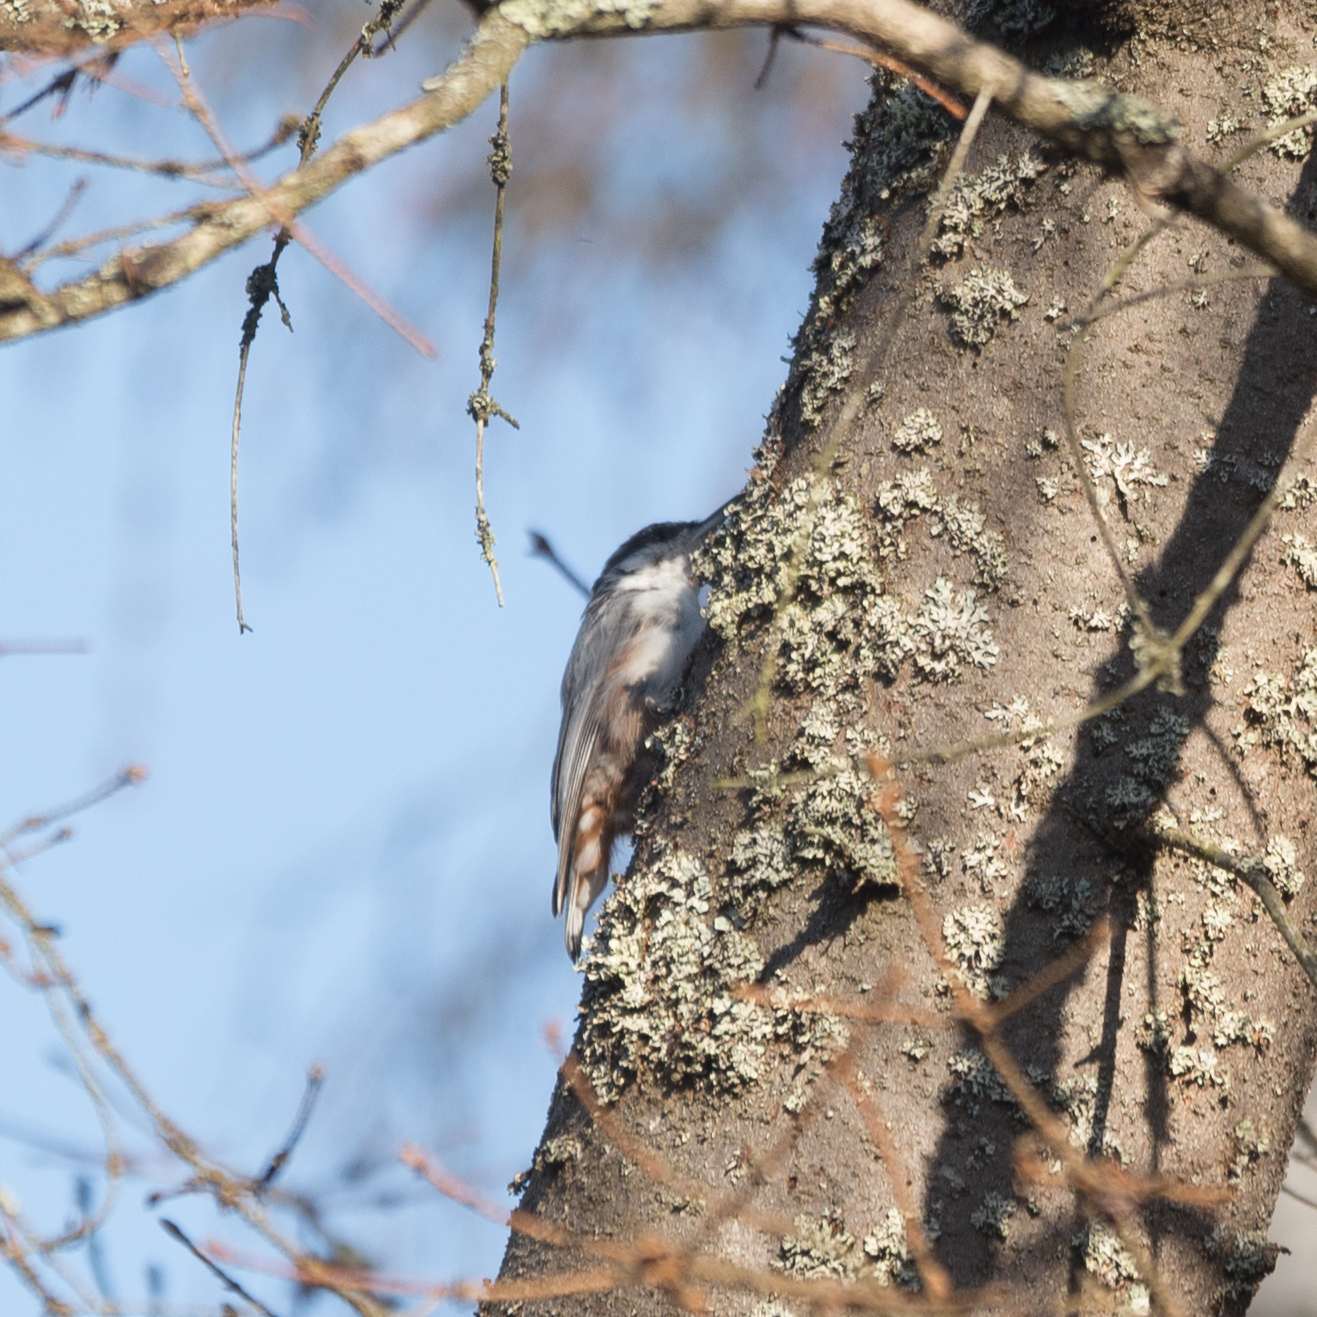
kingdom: Animalia
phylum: Chordata
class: Aves
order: Passeriformes
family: Sittidae
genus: Sitta
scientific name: Sitta europaea
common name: Eurasian nuthatch
